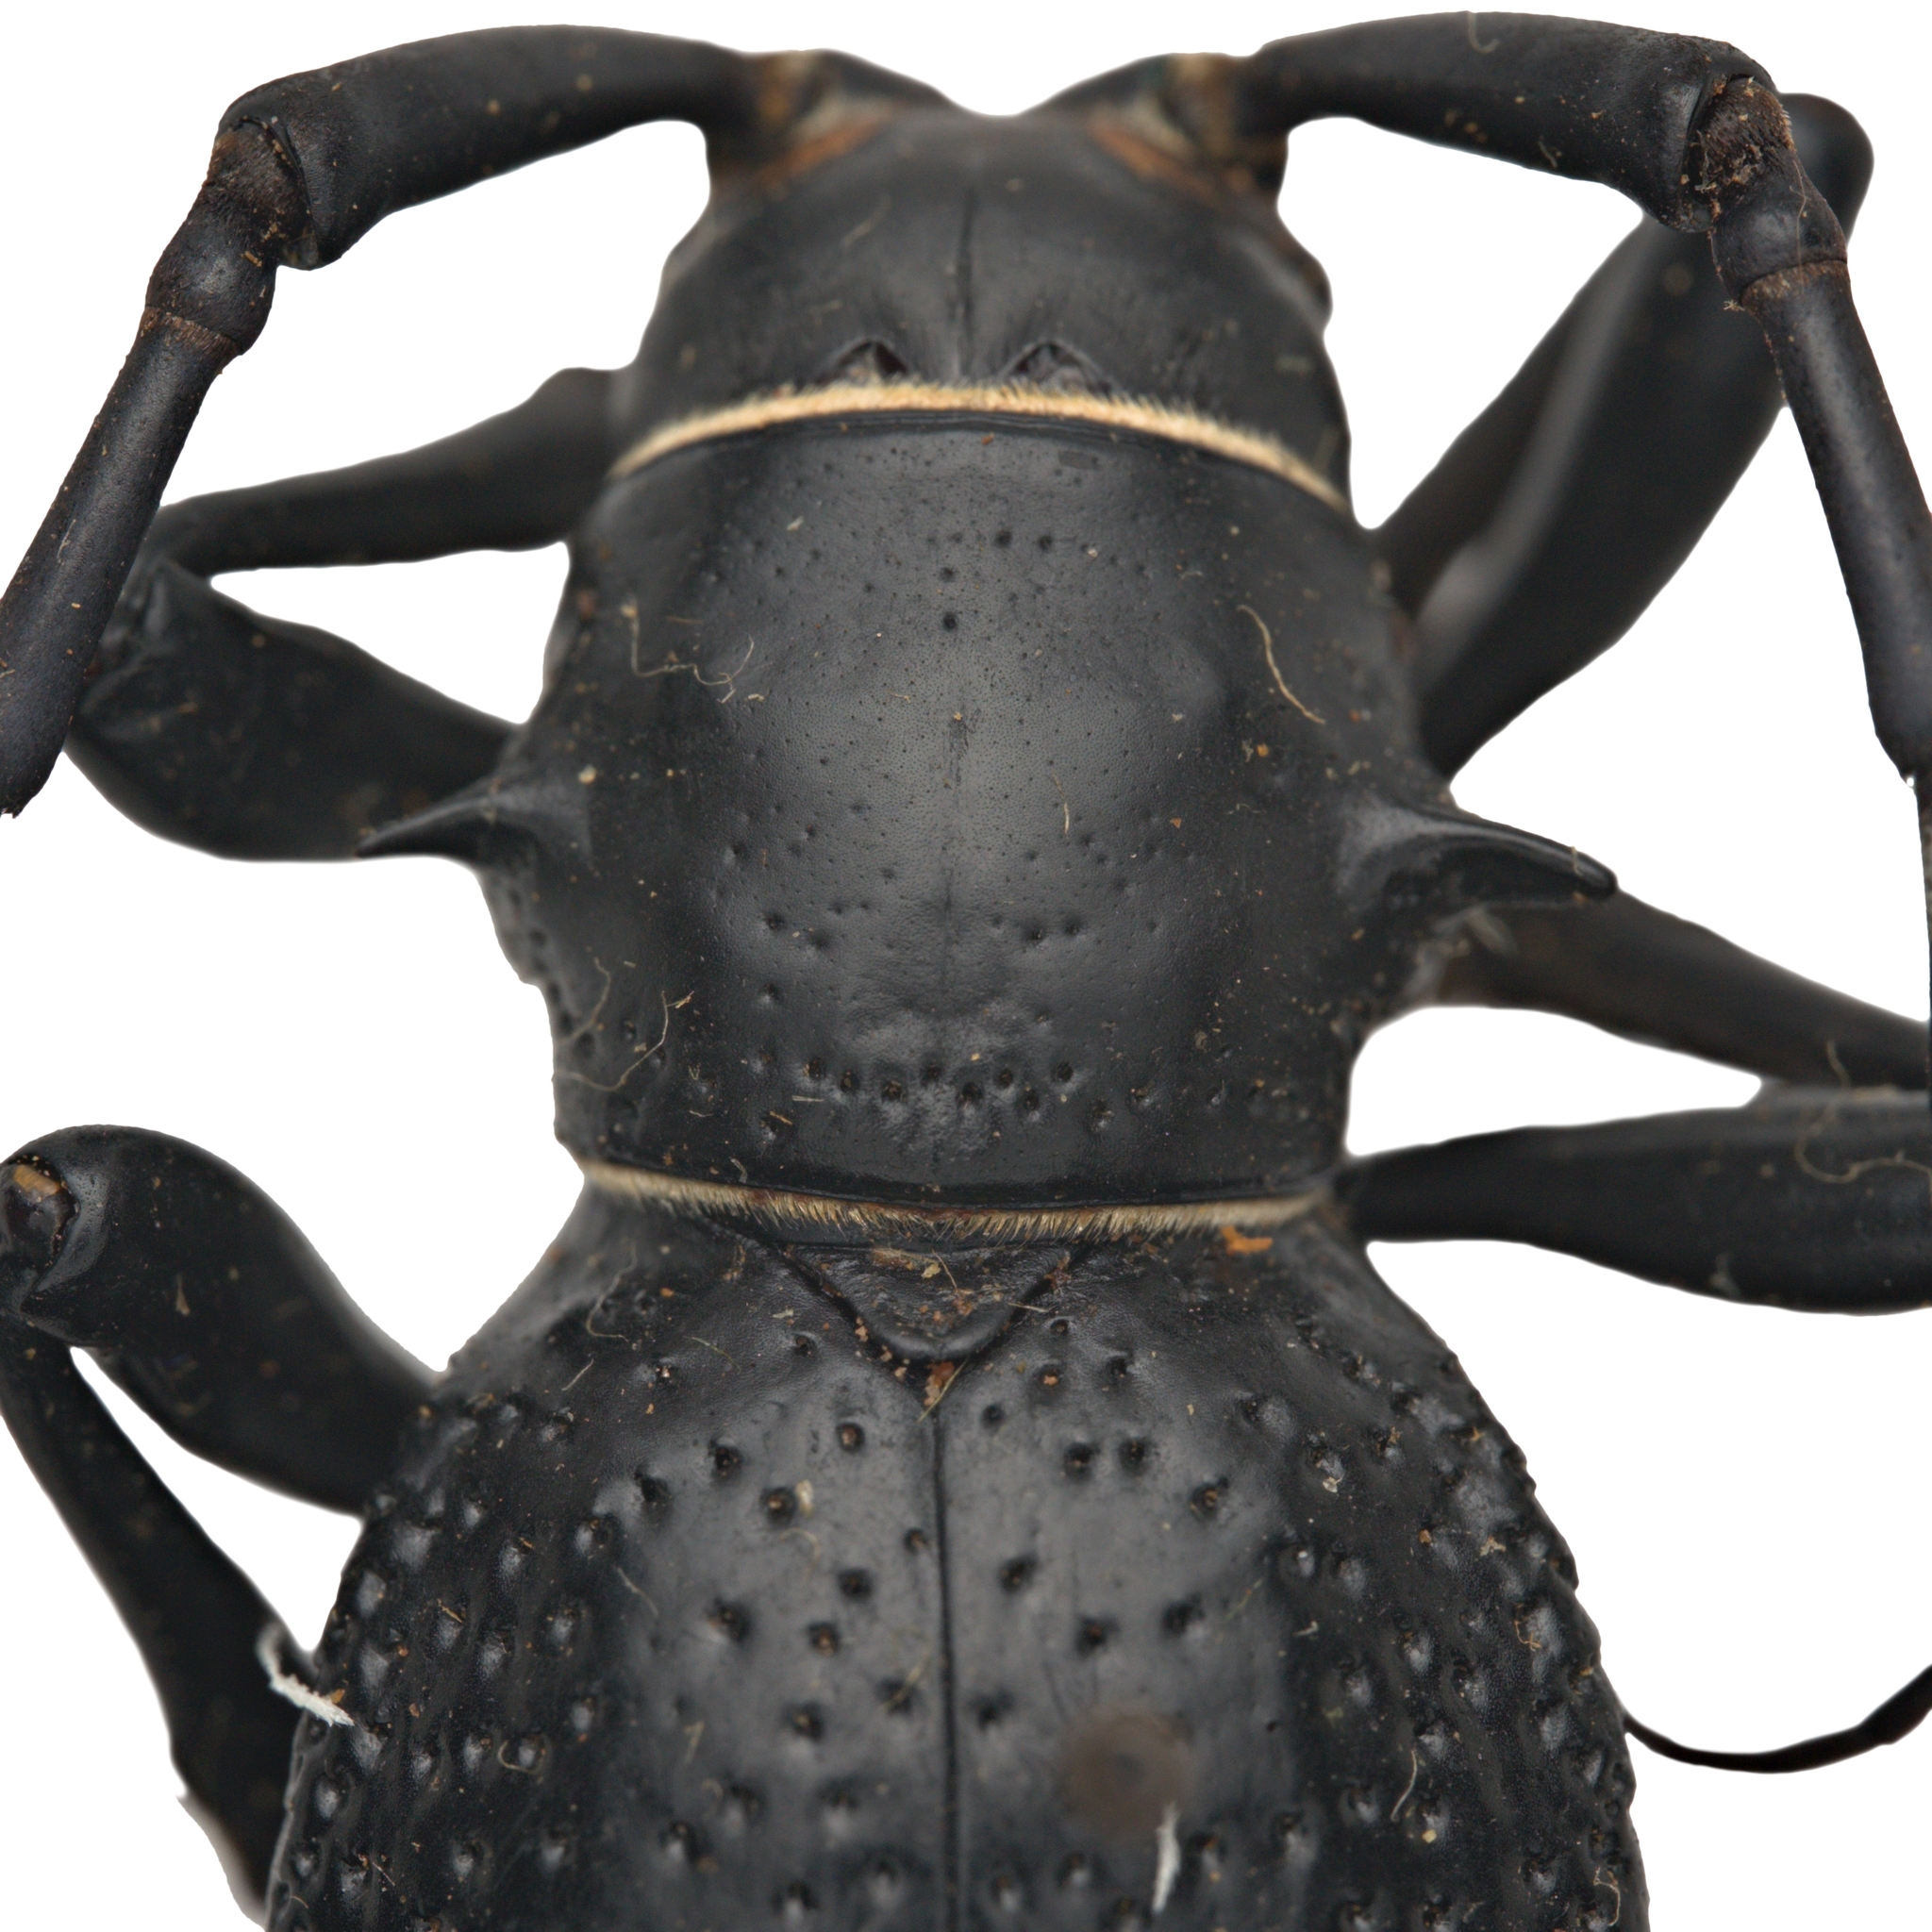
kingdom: Animalia
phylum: Arthropoda
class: Insecta
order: Coleoptera
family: Cerambycidae
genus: Moneilema
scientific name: Moneilema gigas
